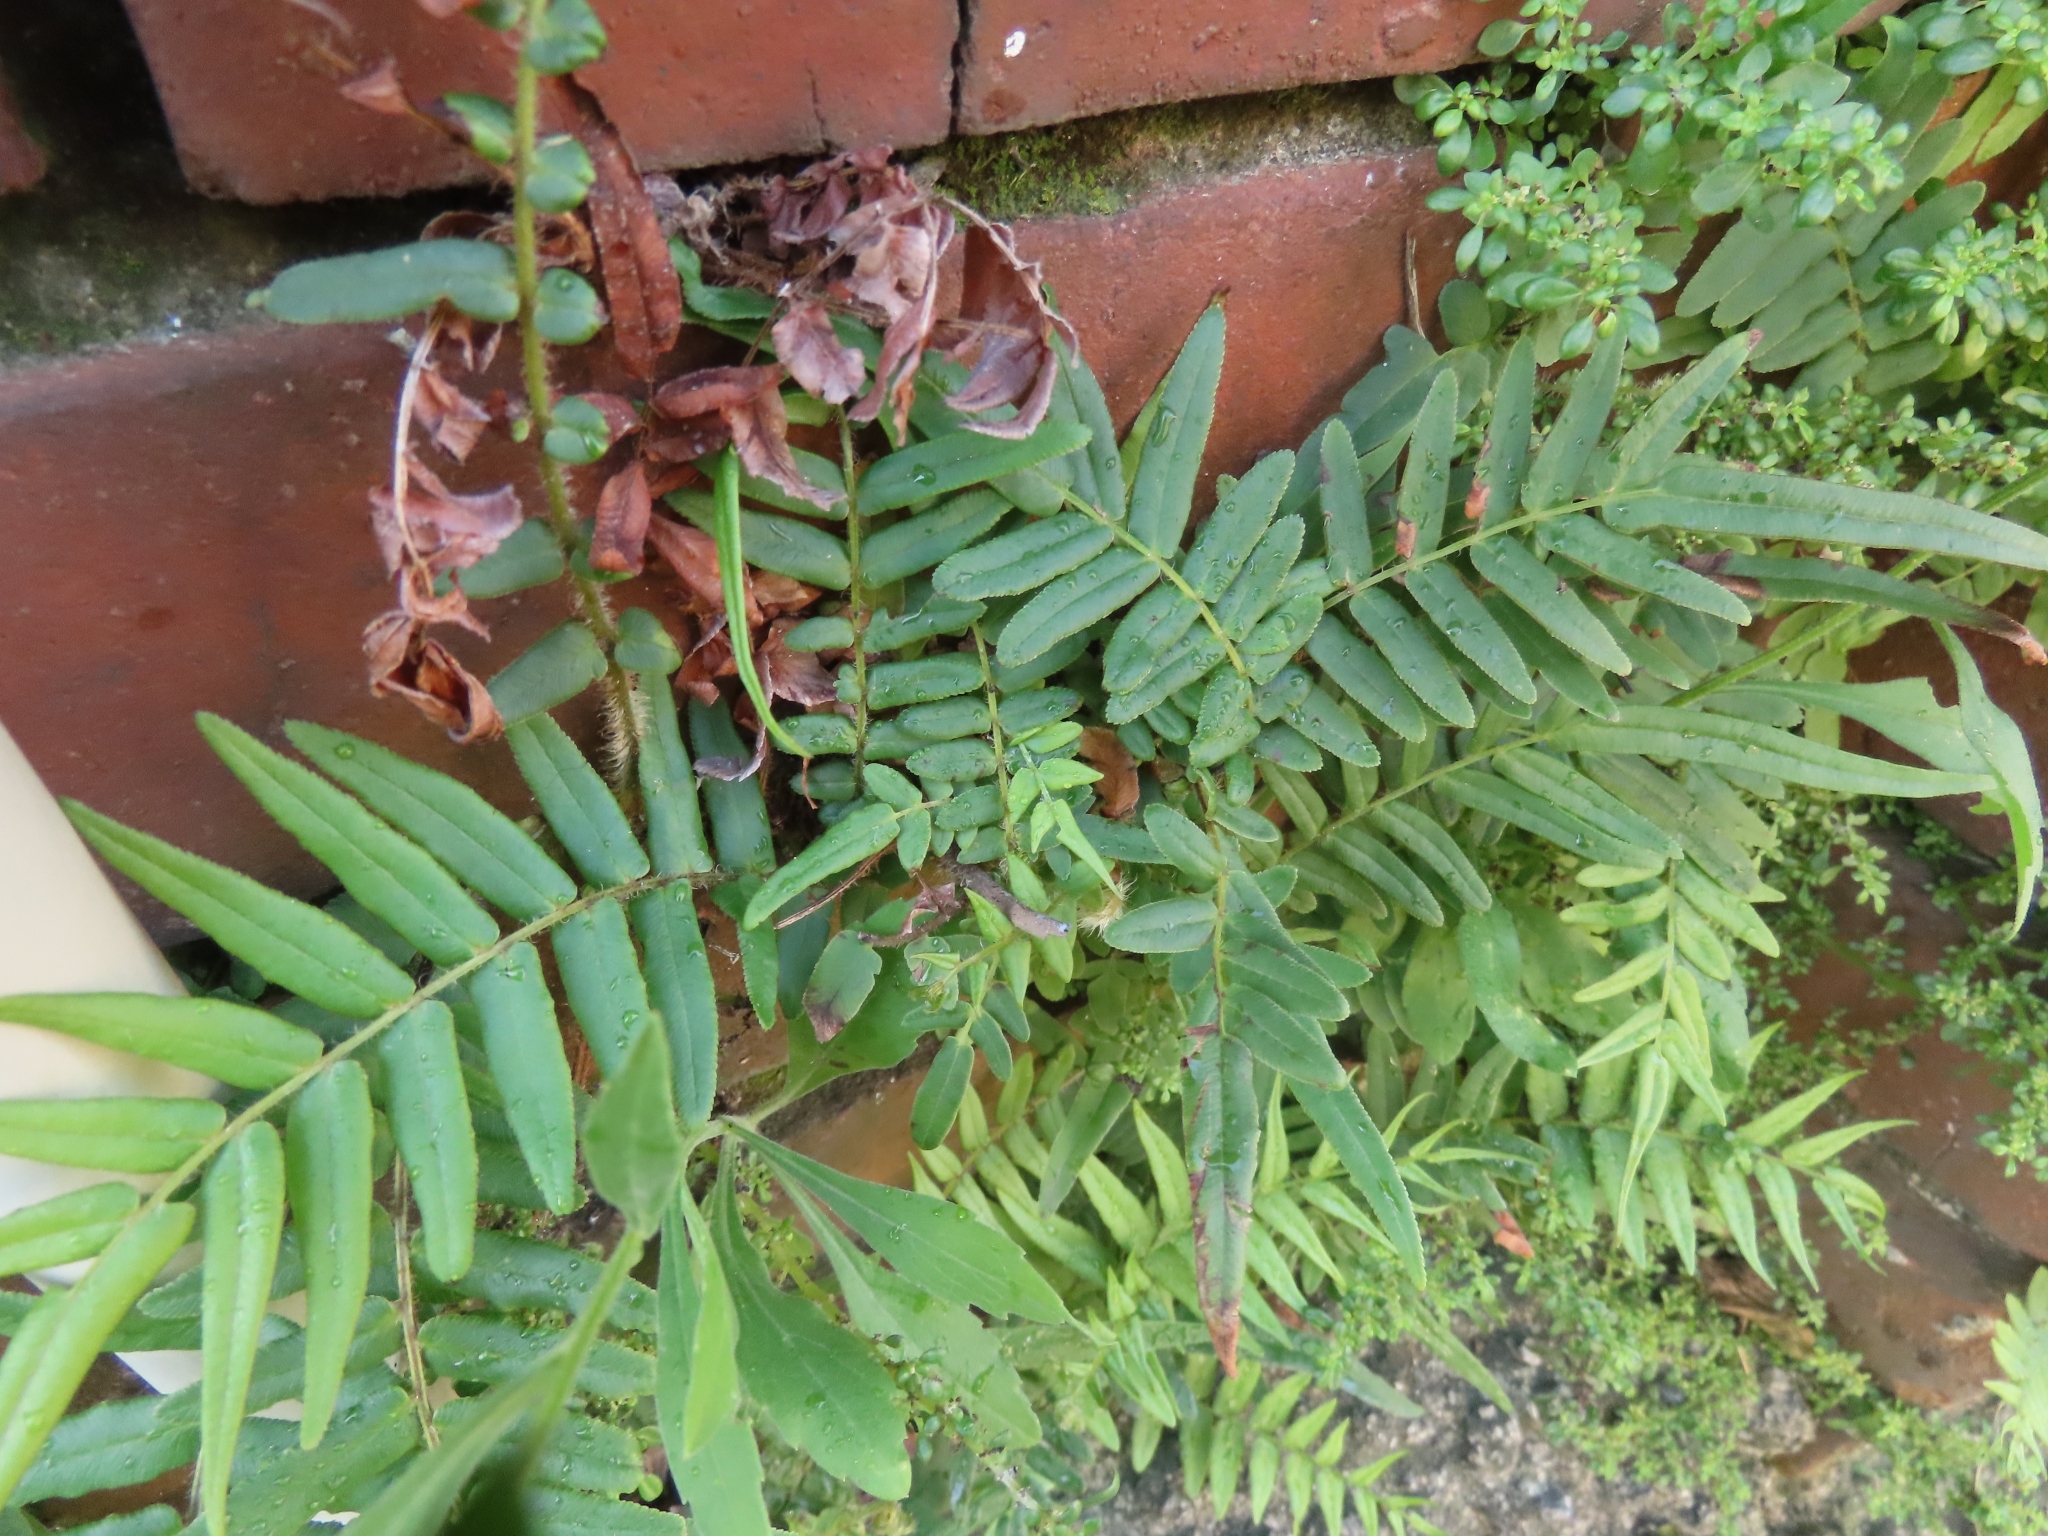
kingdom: Plantae
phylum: Tracheophyta
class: Polypodiopsida
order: Polypodiales
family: Pteridaceae
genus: Pteris
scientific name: Pteris vittata
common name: Ladder brake
